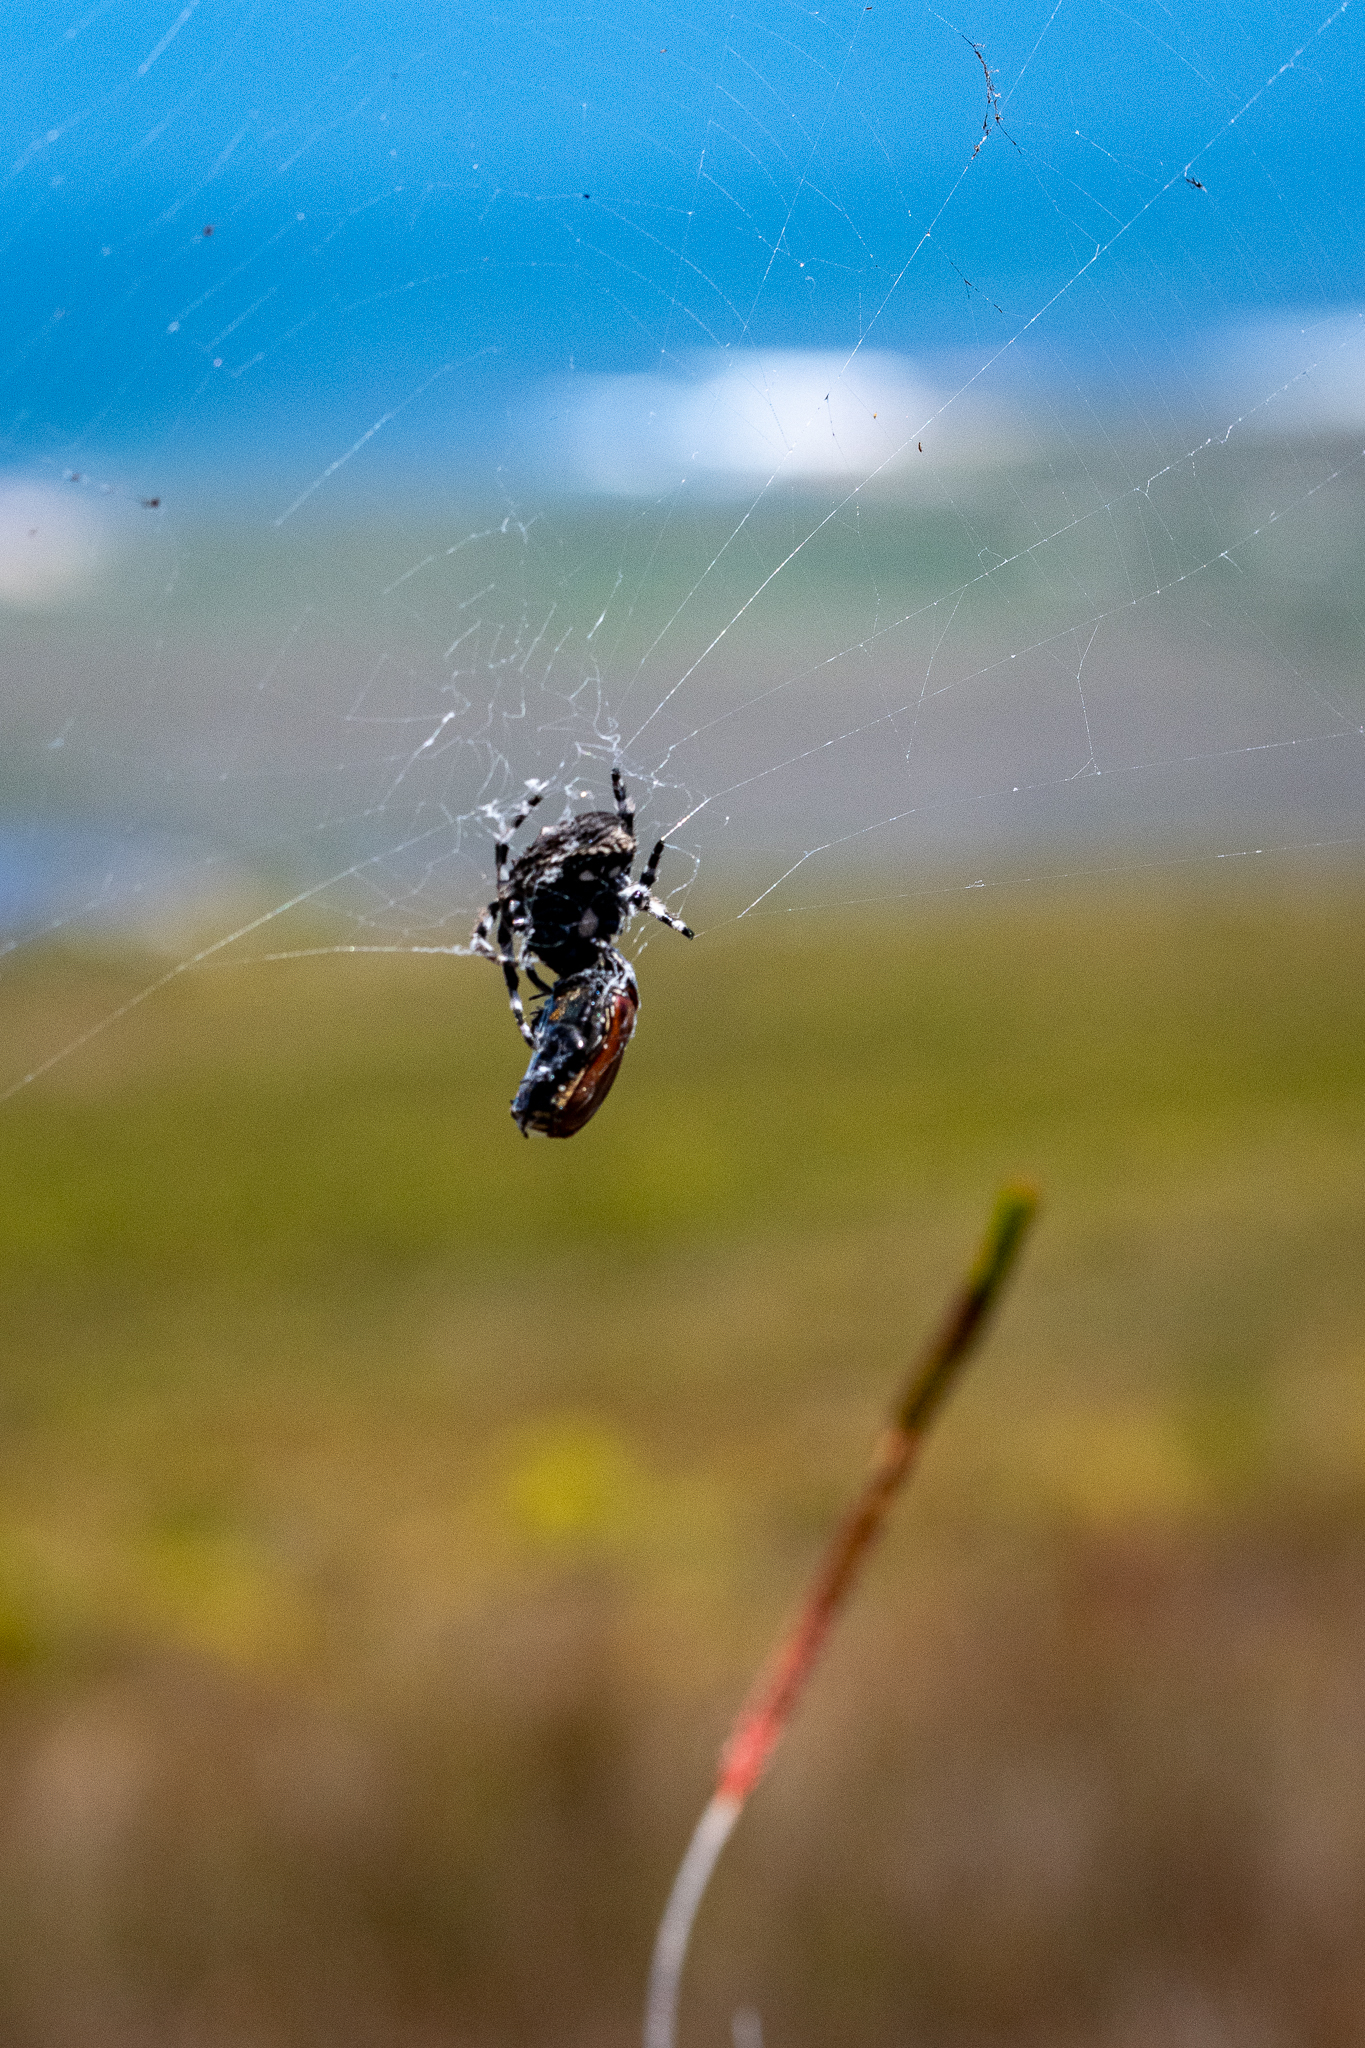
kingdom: Animalia
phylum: Arthropoda
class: Arachnida
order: Araneae
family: Araneidae
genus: Caerostris
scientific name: Caerostris sexcuspidata
